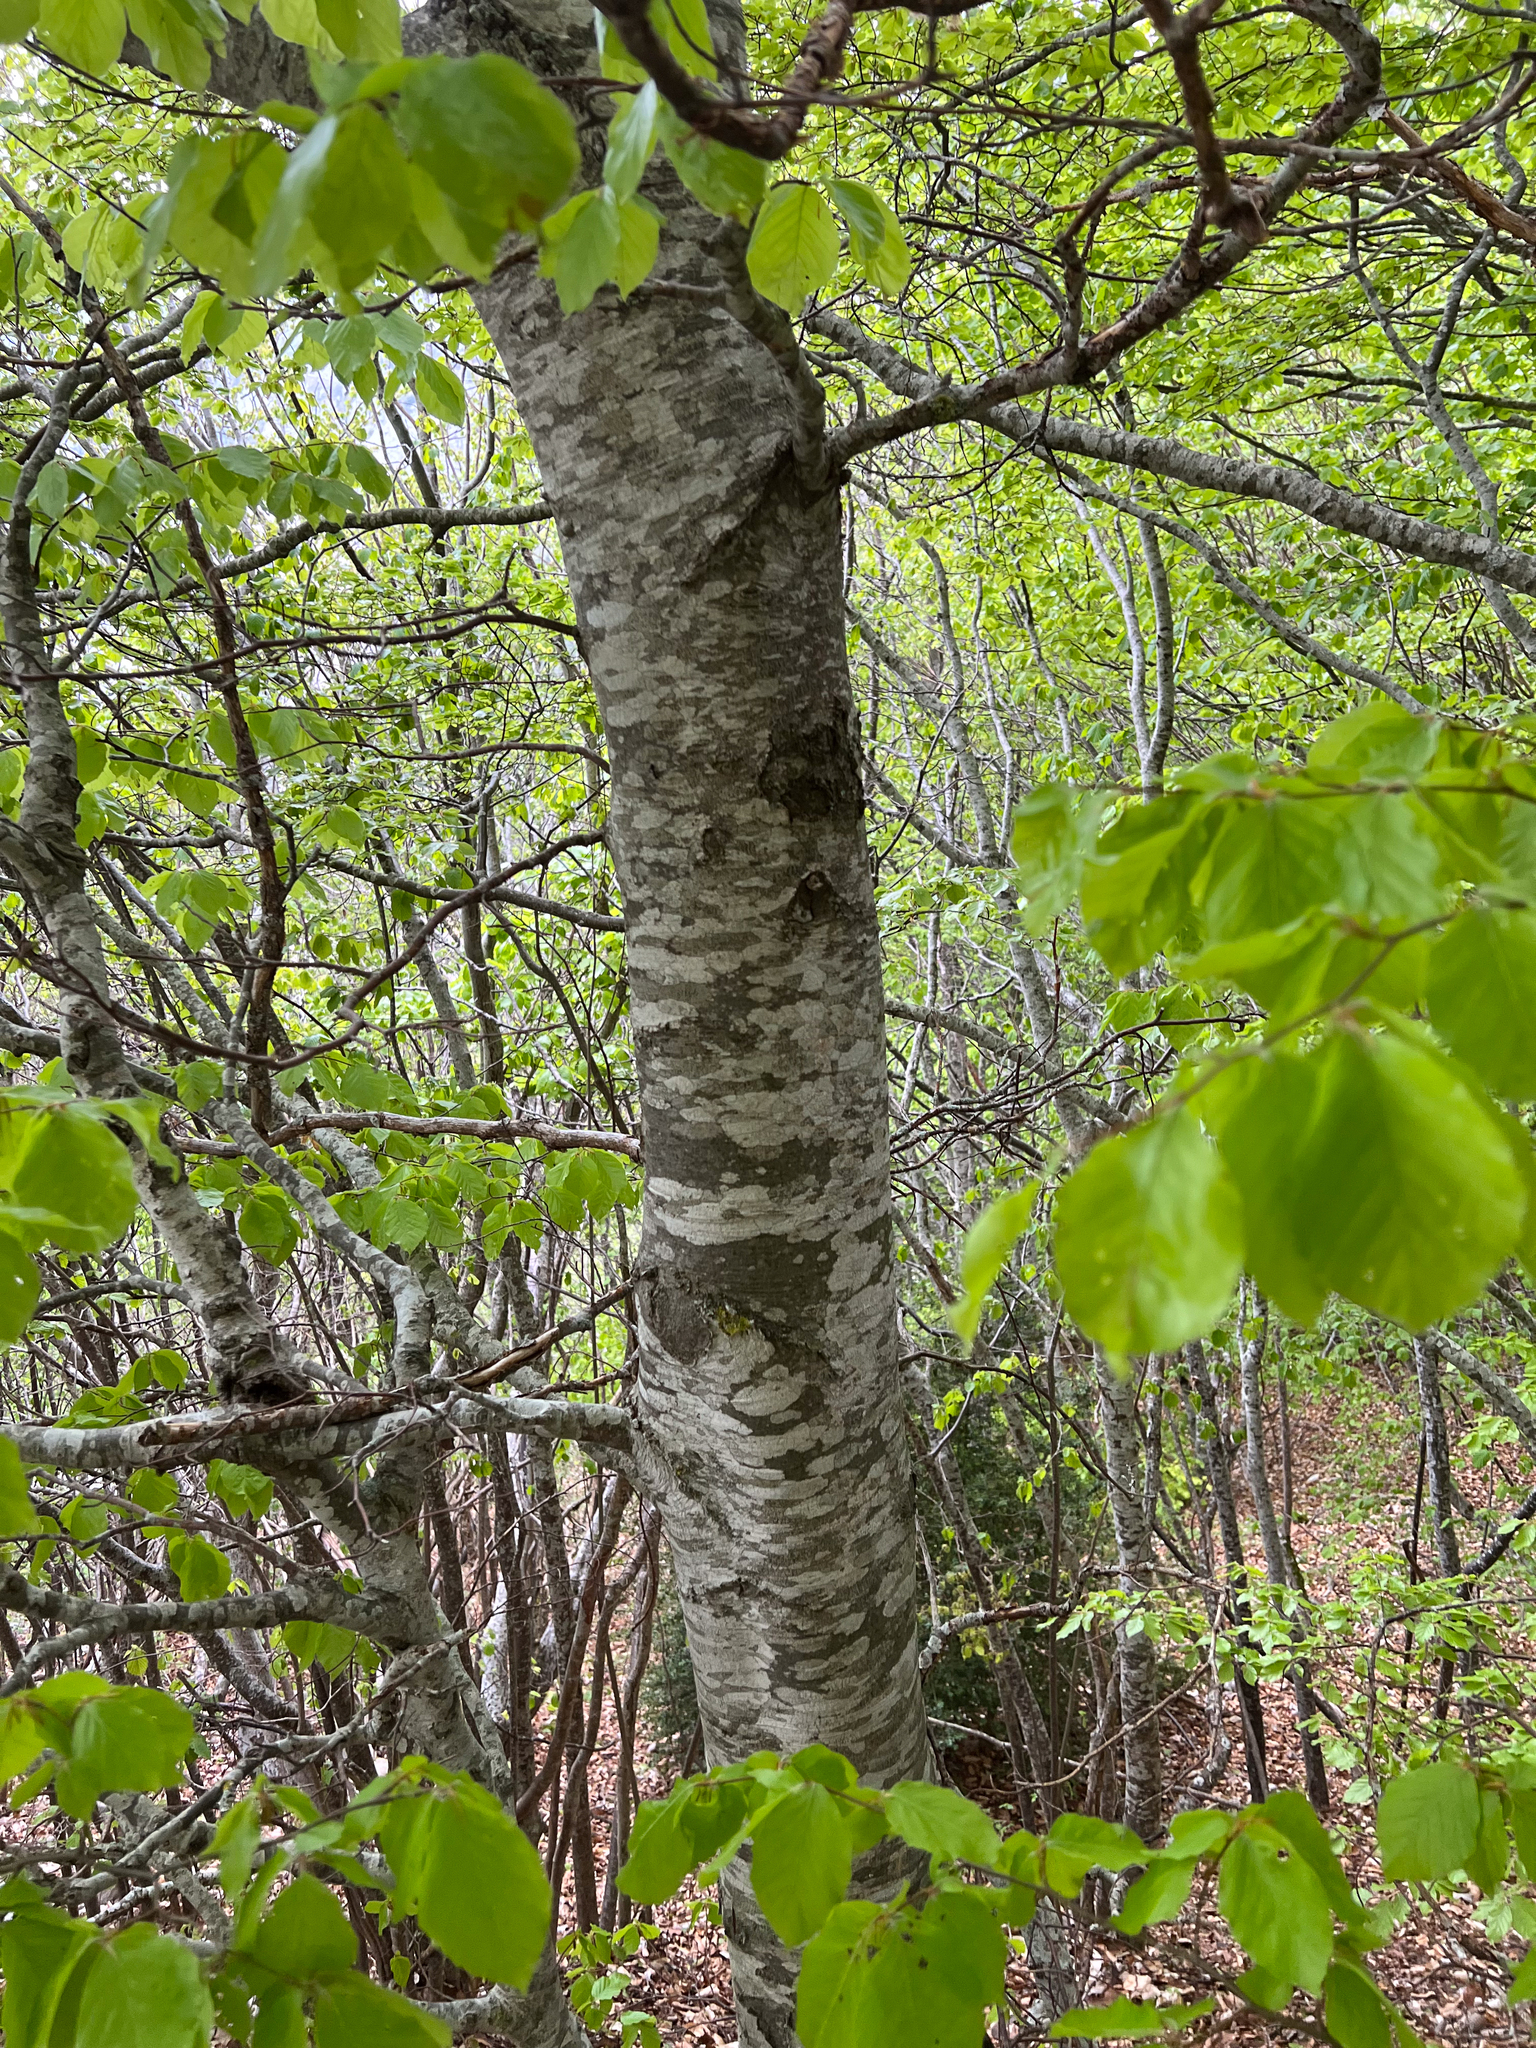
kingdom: Plantae
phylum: Tracheophyta
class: Magnoliopsida
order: Fagales
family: Fagaceae
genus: Fagus
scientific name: Fagus sylvatica
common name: Beech
